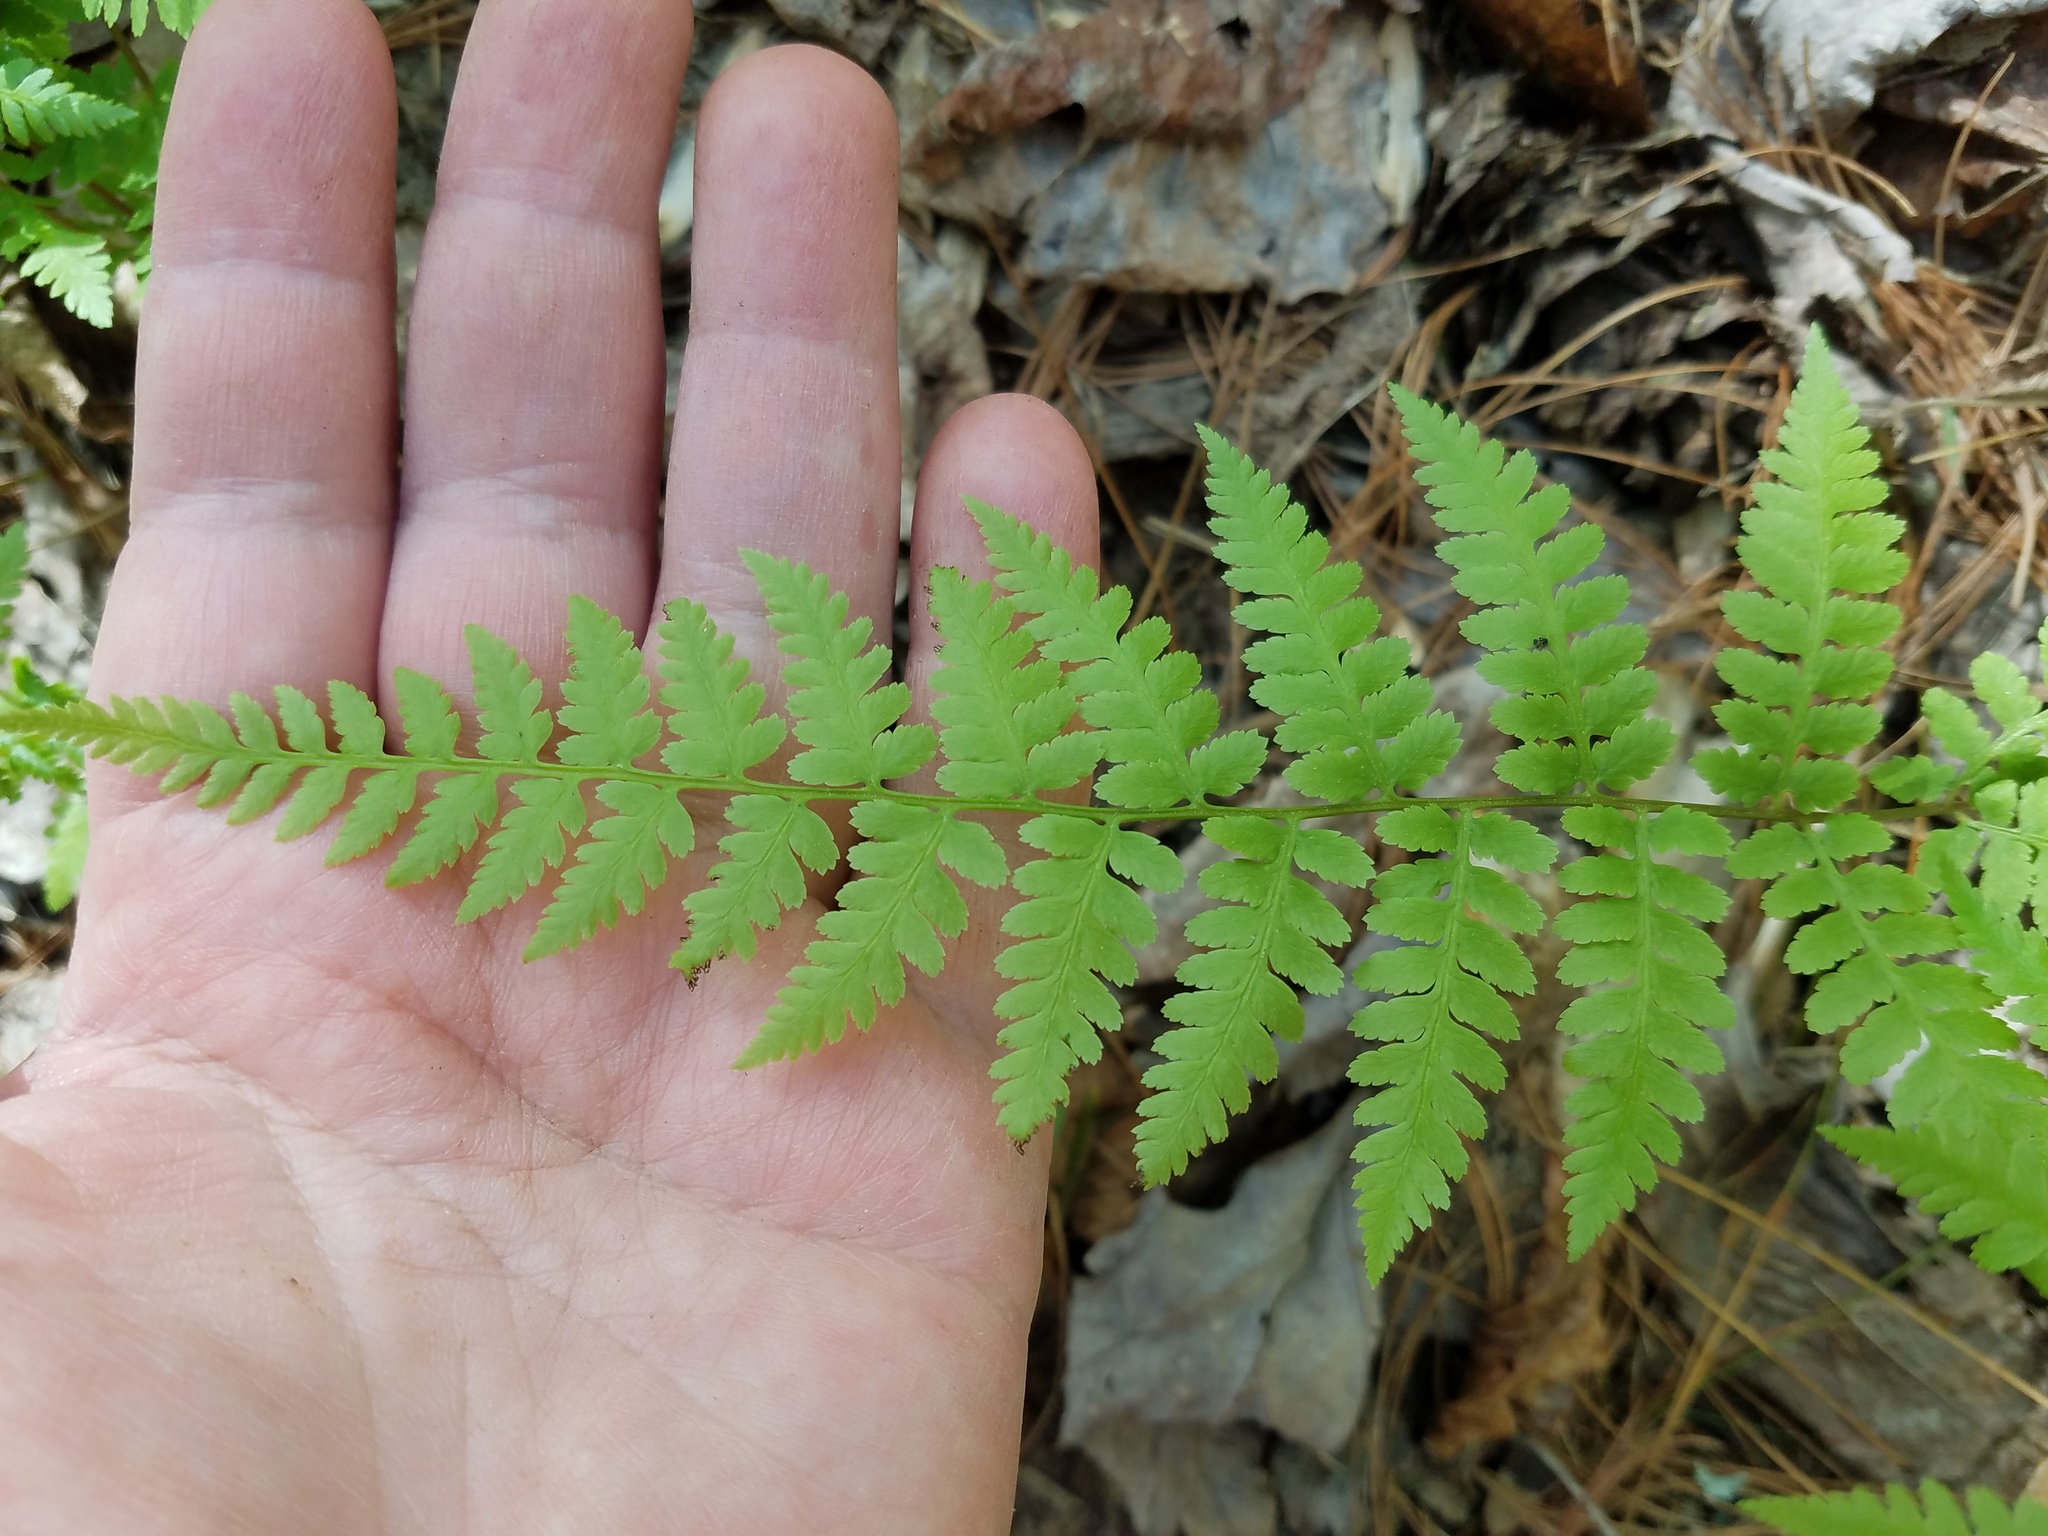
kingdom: Plantae
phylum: Tracheophyta
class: Polypodiopsida
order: Polypodiales
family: Athyriaceae
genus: Athyrium
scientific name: Athyrium asplenioides
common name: Southern lady fern
